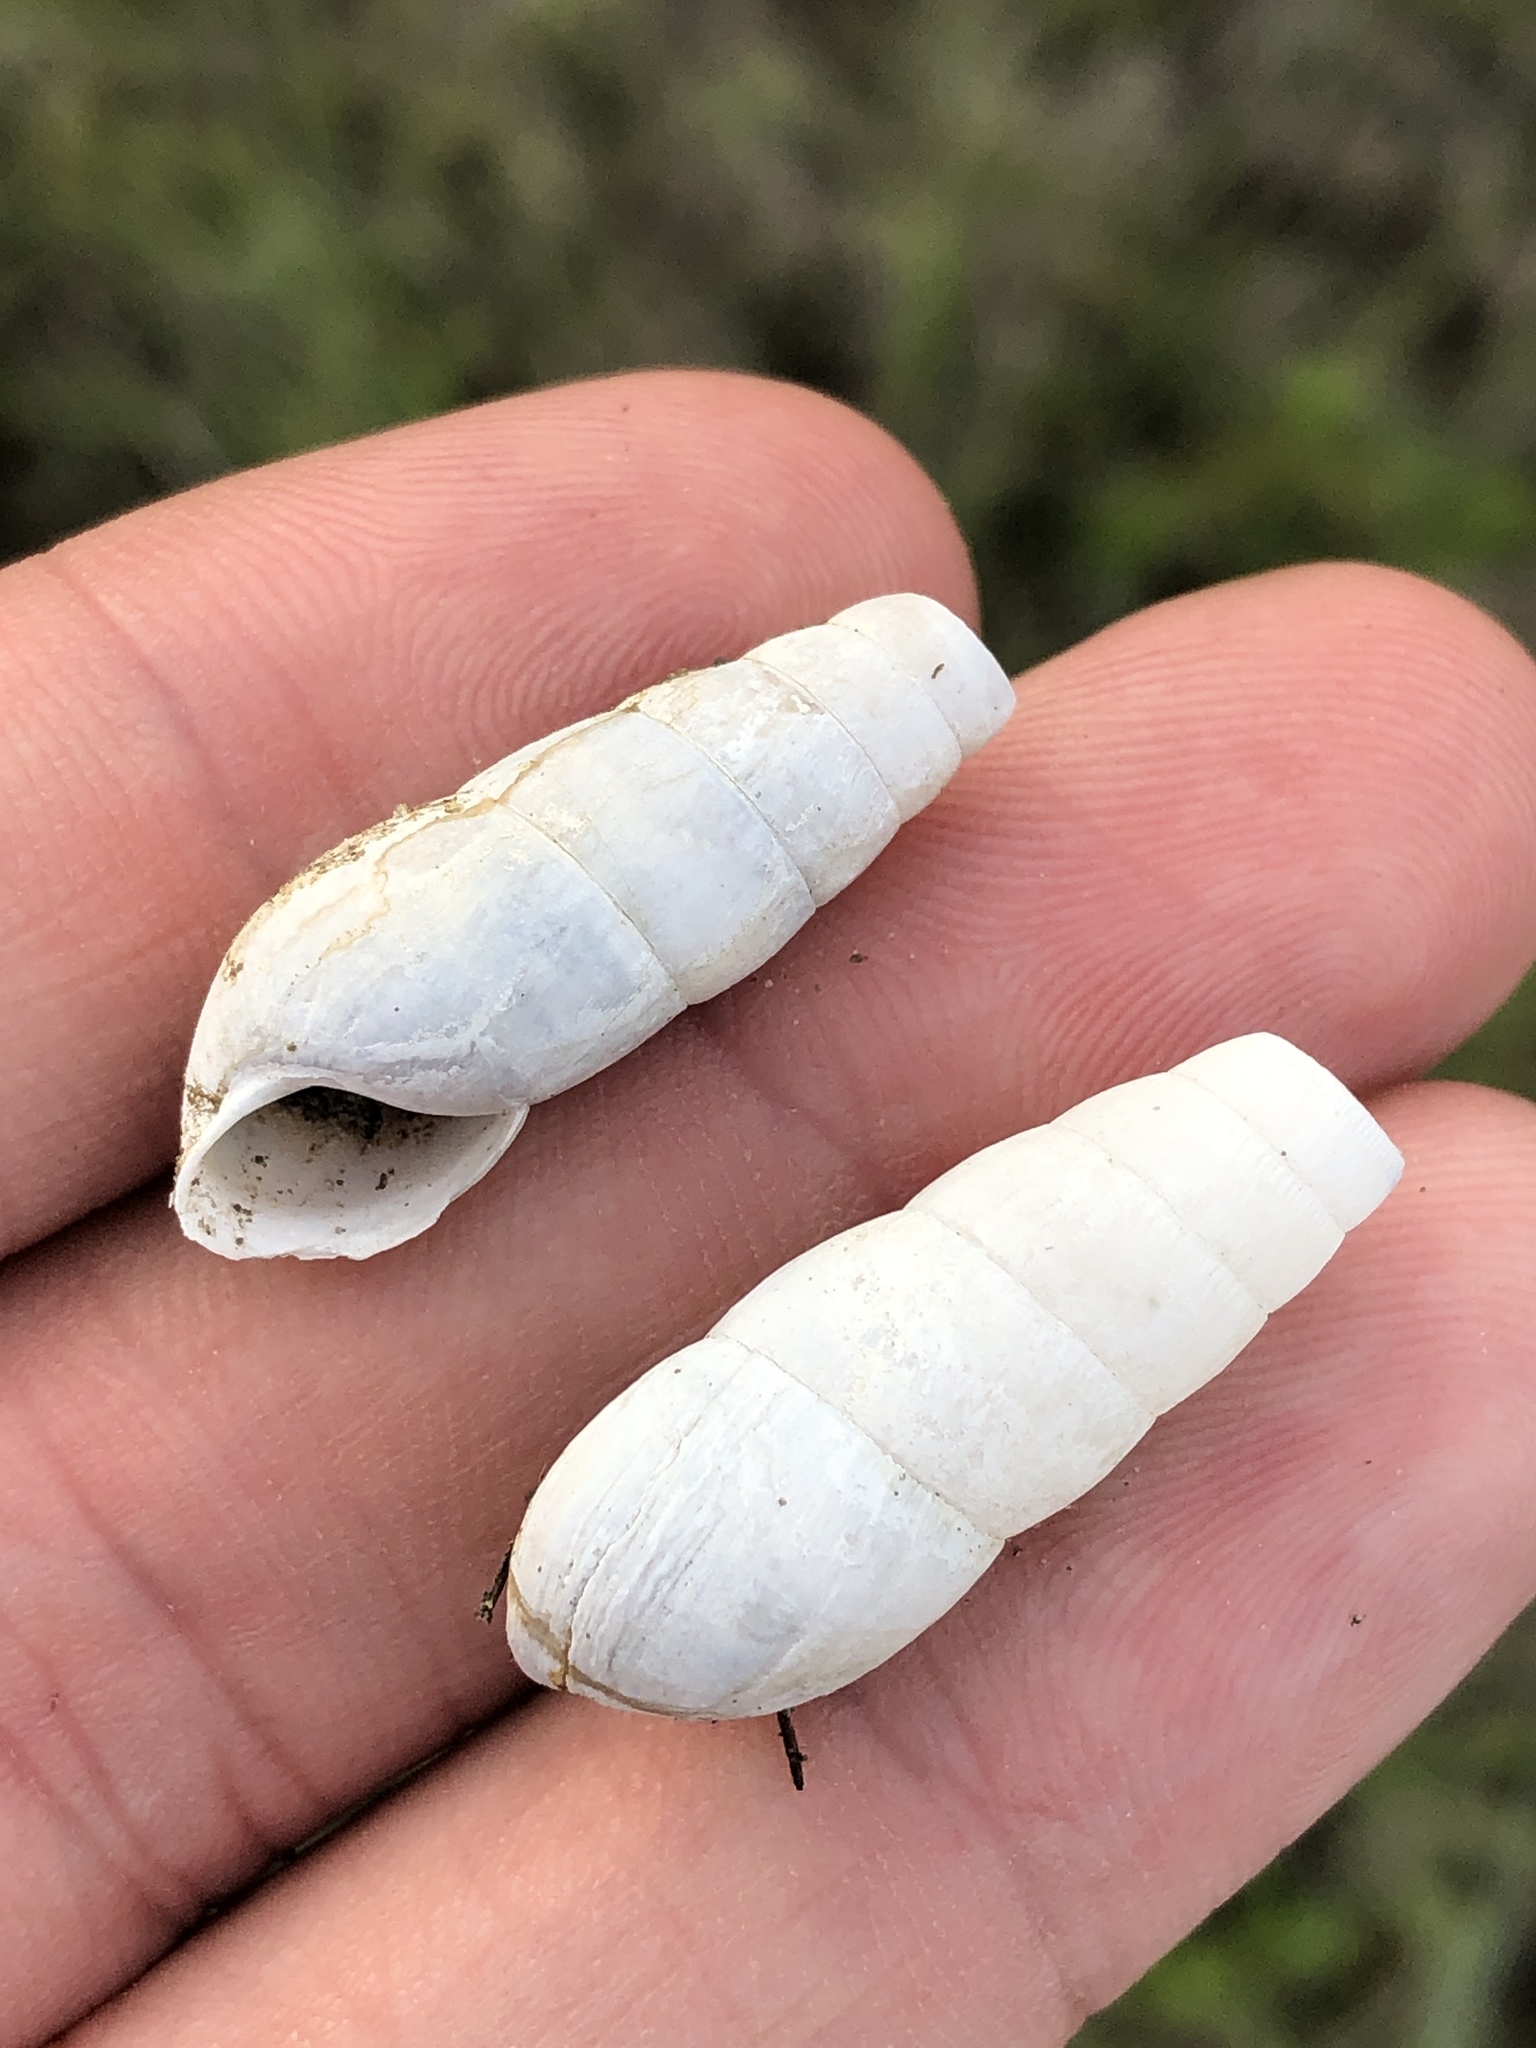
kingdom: Animalia
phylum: Mollusca
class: Gastropoda
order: Stylommatophora
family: Achatinidae
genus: Rumina
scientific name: Rumina decollata
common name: Decollate snail
